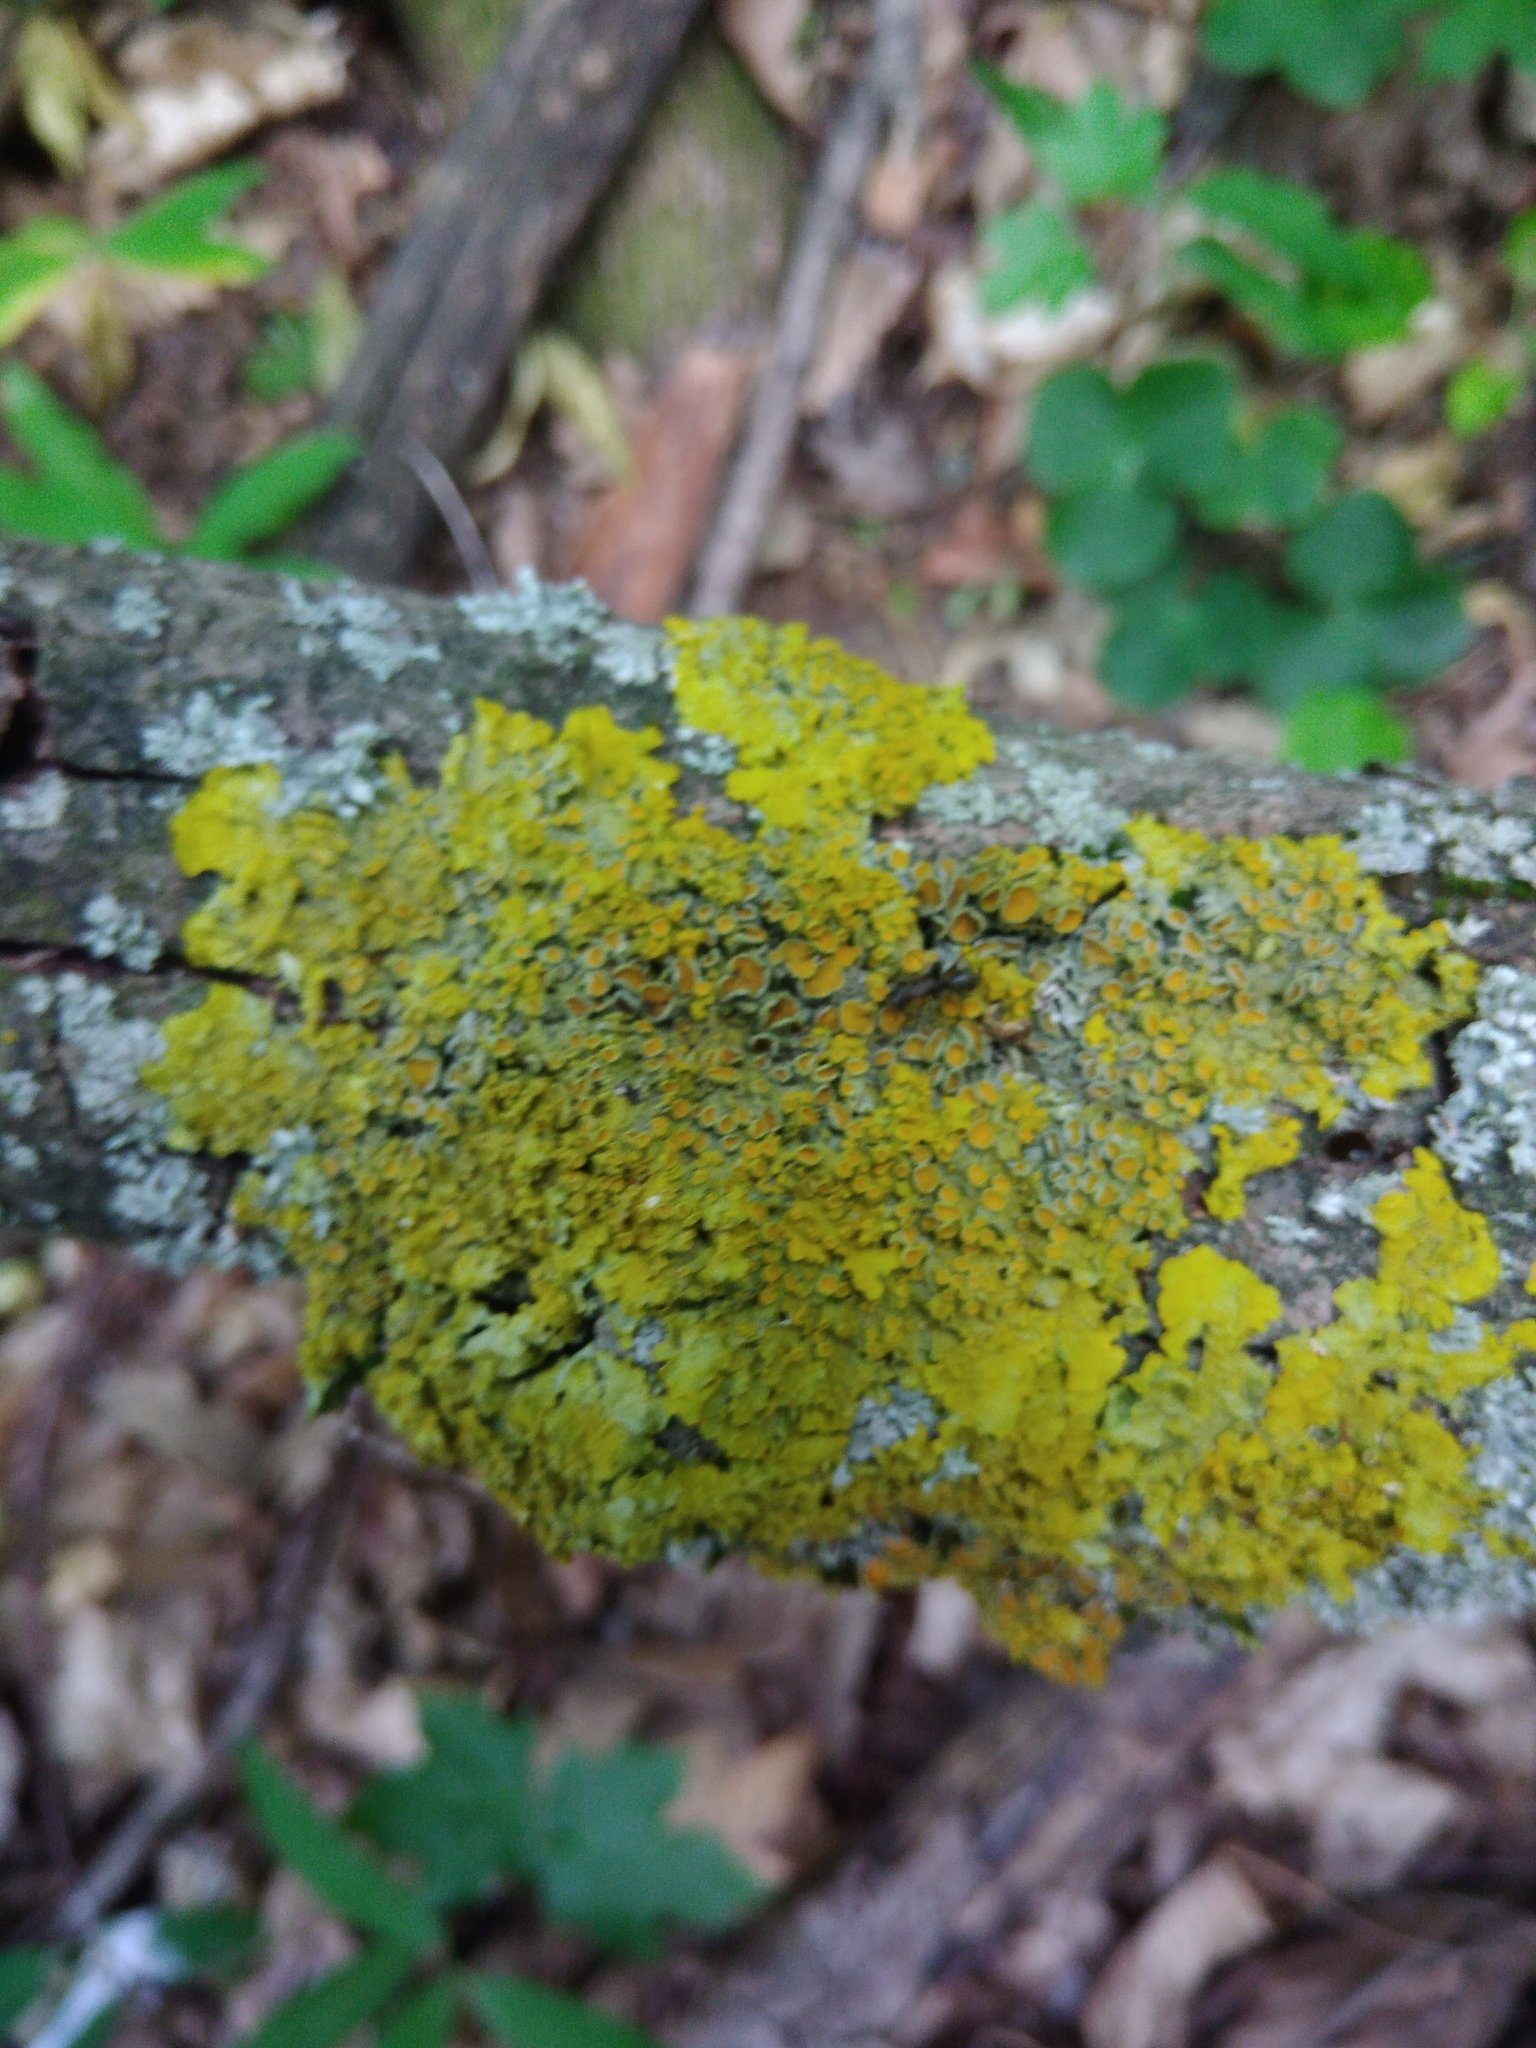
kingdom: Fungi
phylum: Ascomycota
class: Lecanoromycetes
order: Teloschistales
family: Teloschistaceae
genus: Xanthoria
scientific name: Xanthoria parietina
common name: Common orange lichen
